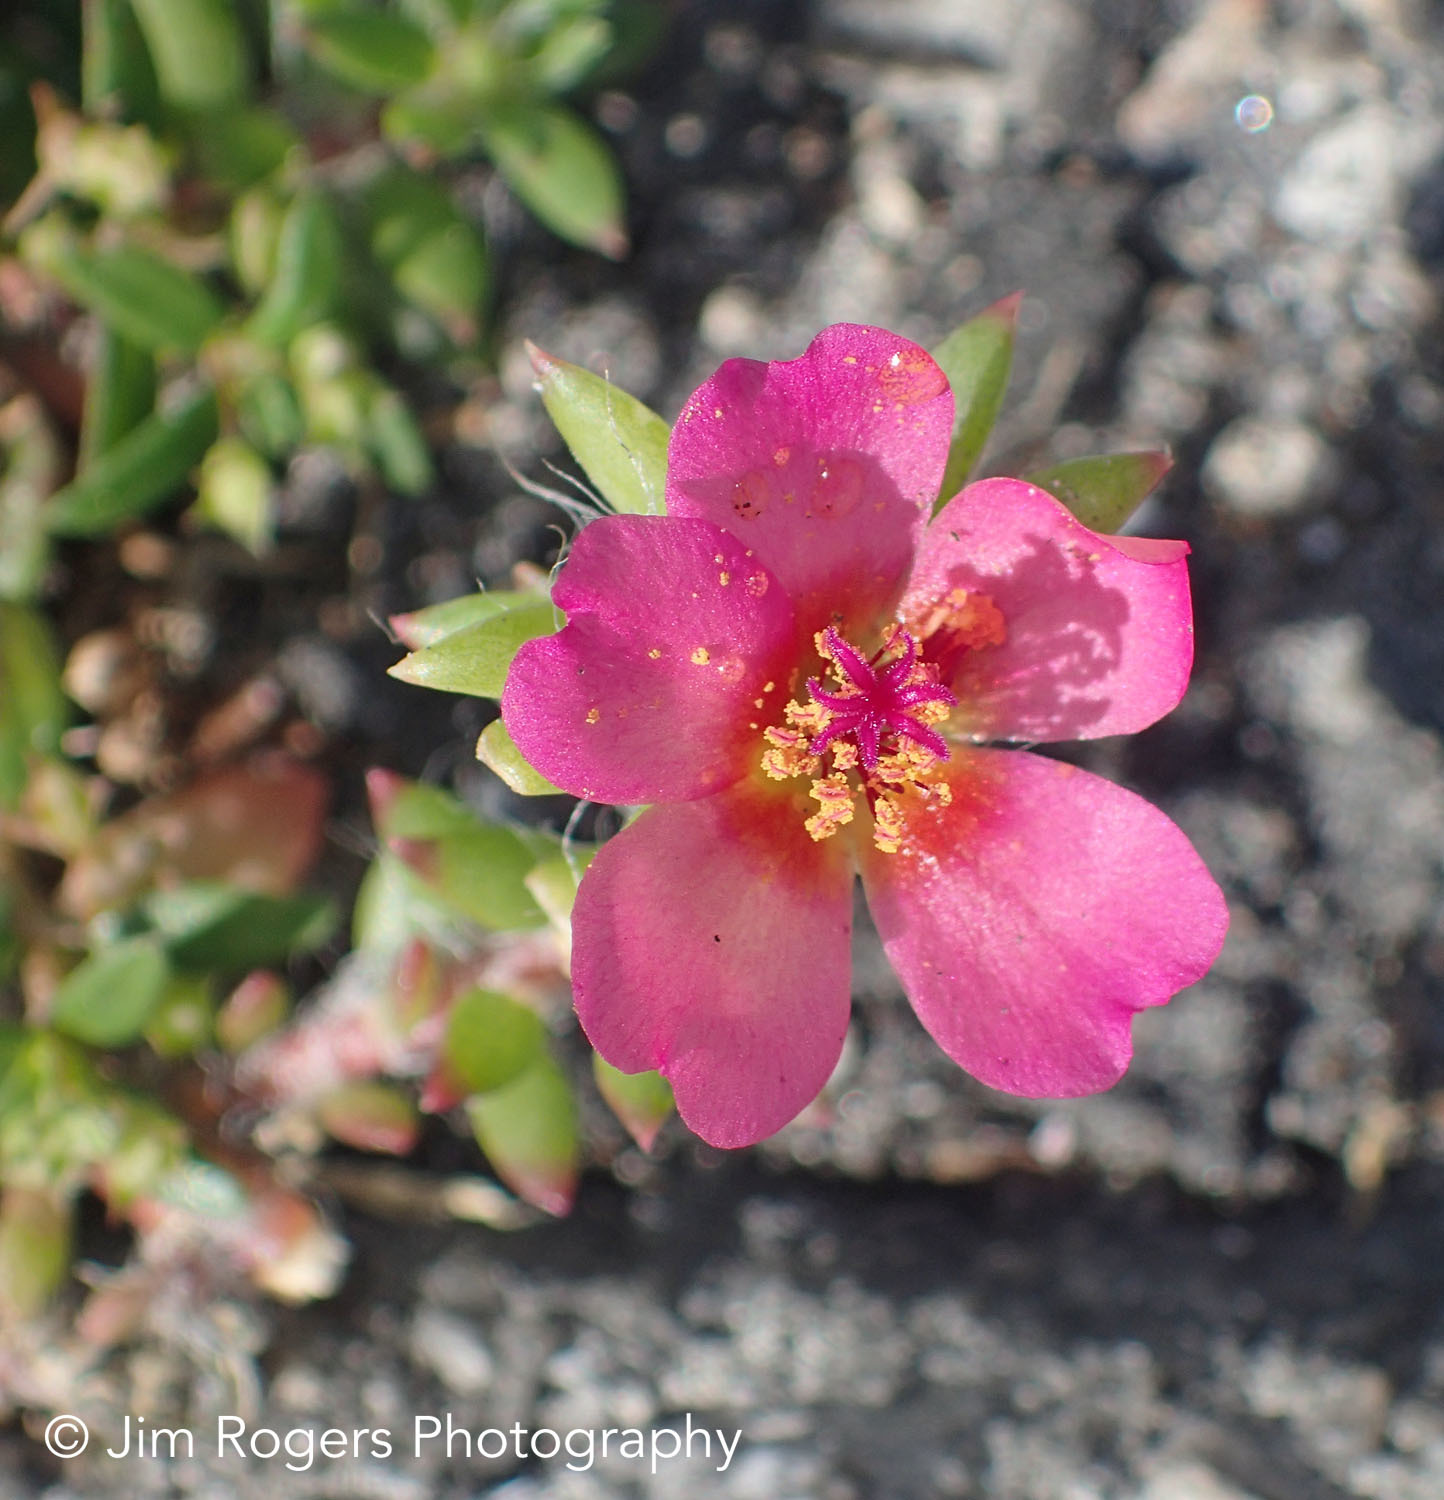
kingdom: Plantae
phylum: Tracheophyta
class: Magnoliopsida
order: Caryophyllales
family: Portulacaceae
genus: Portulaca
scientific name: Portulaca pilosa
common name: Kiss me quick
